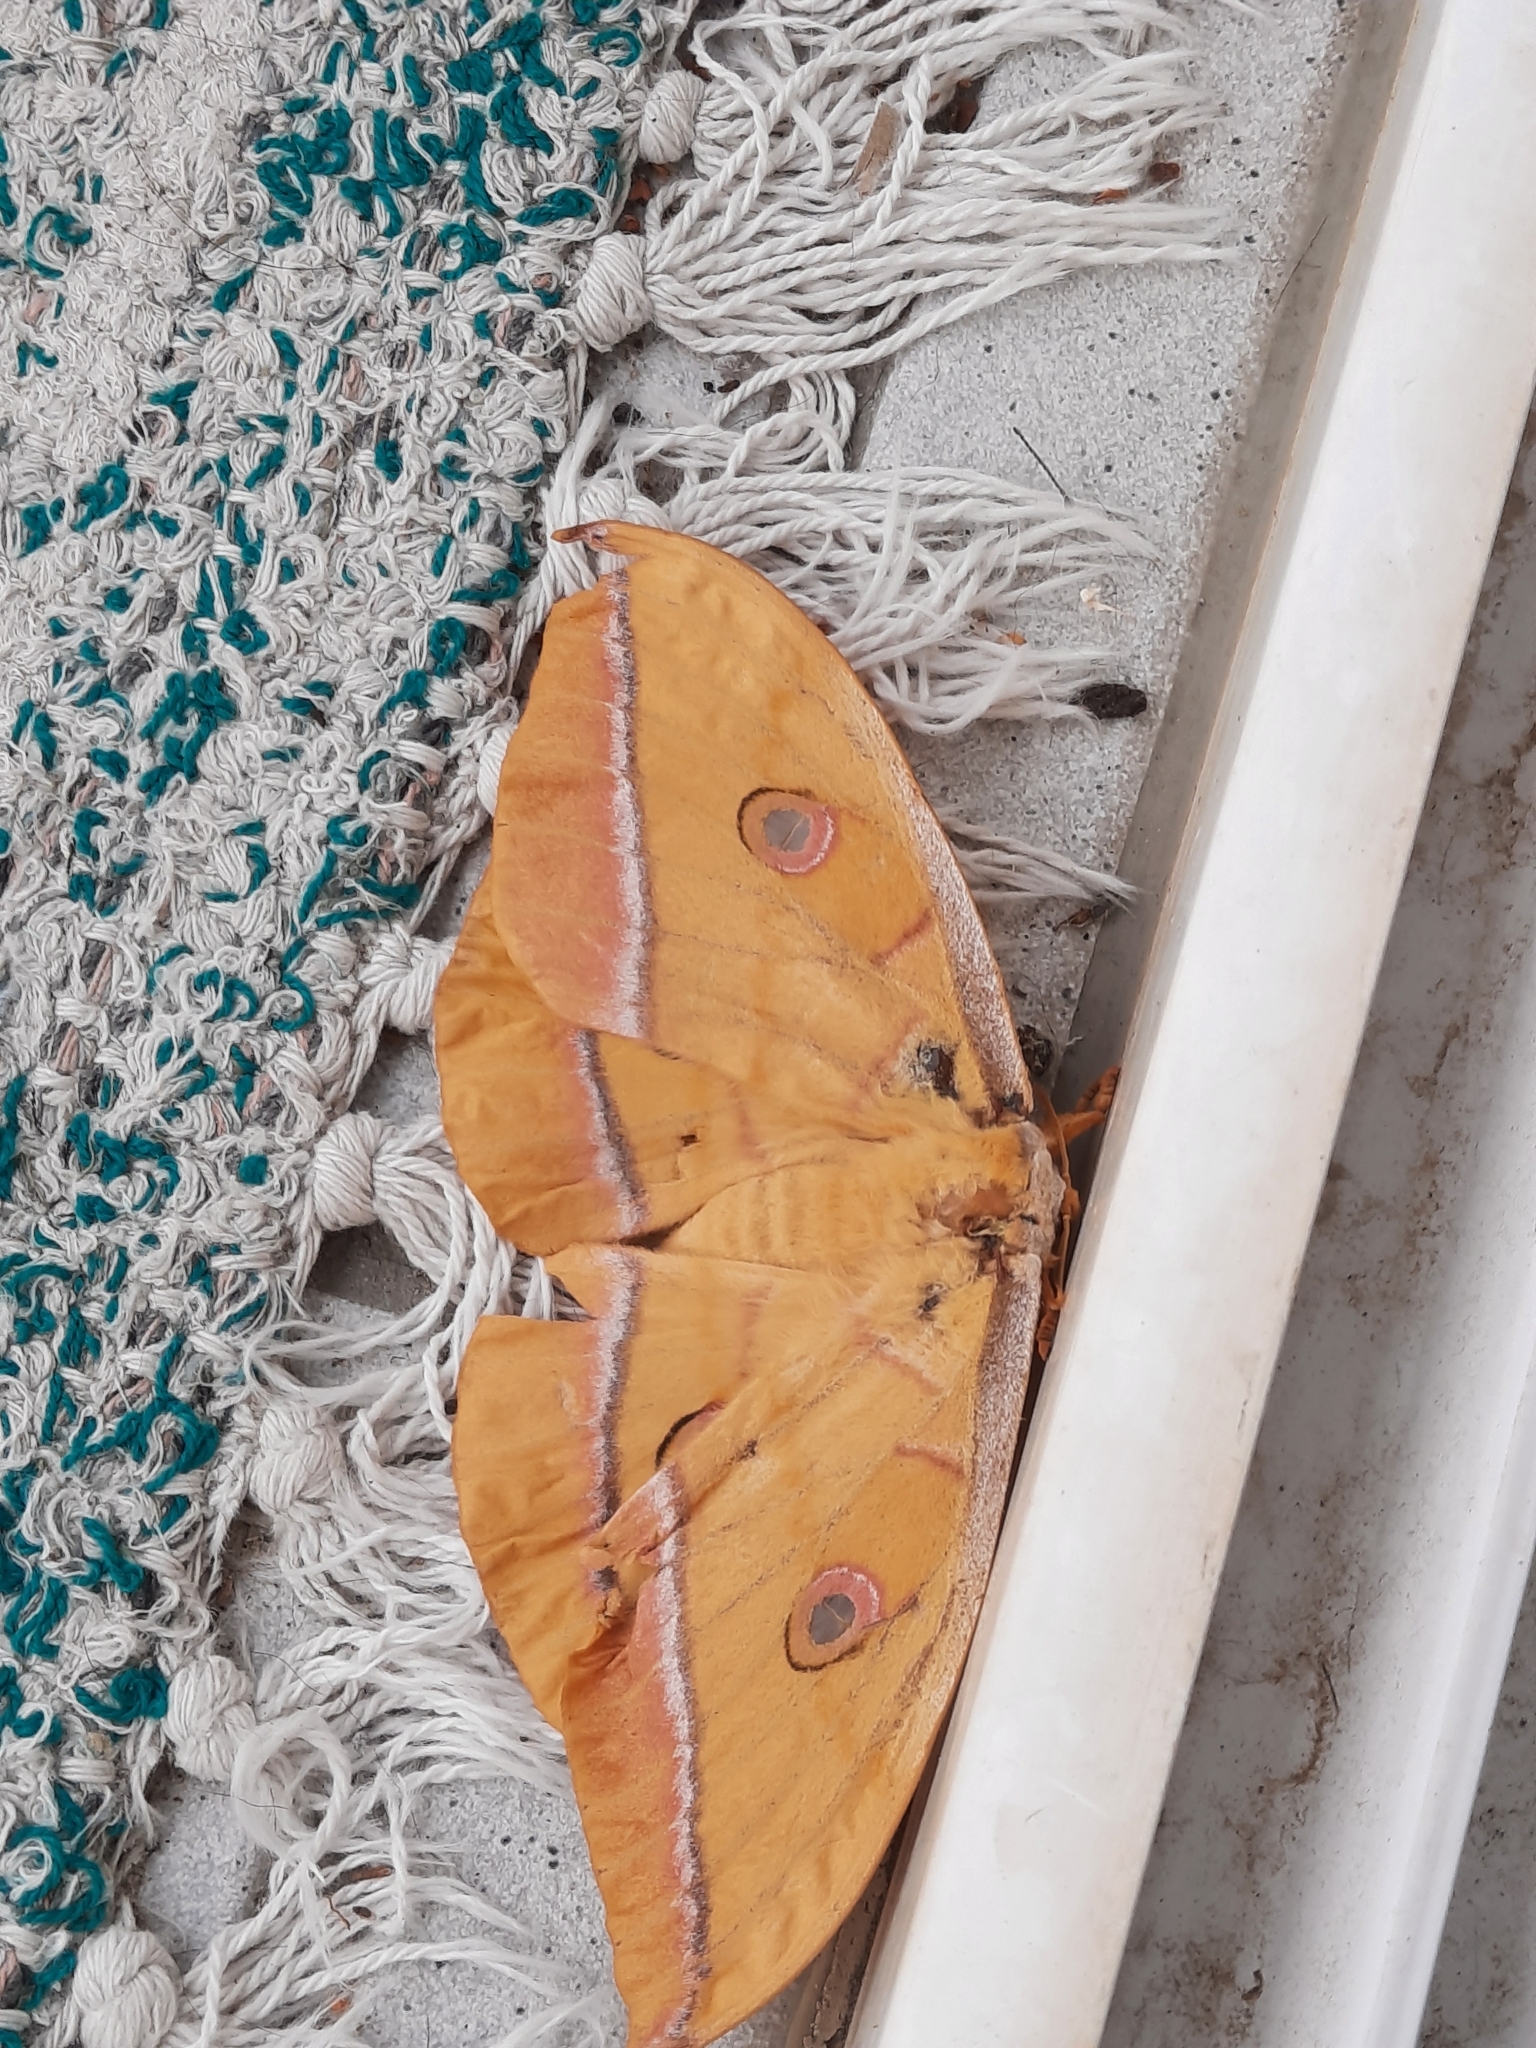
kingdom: Animalia
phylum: Arthropoda
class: Insecta
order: Lepidoptera
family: Saturniidae
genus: Antheraea
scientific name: Antheraea yamamai
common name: Japanese oak silk moth
